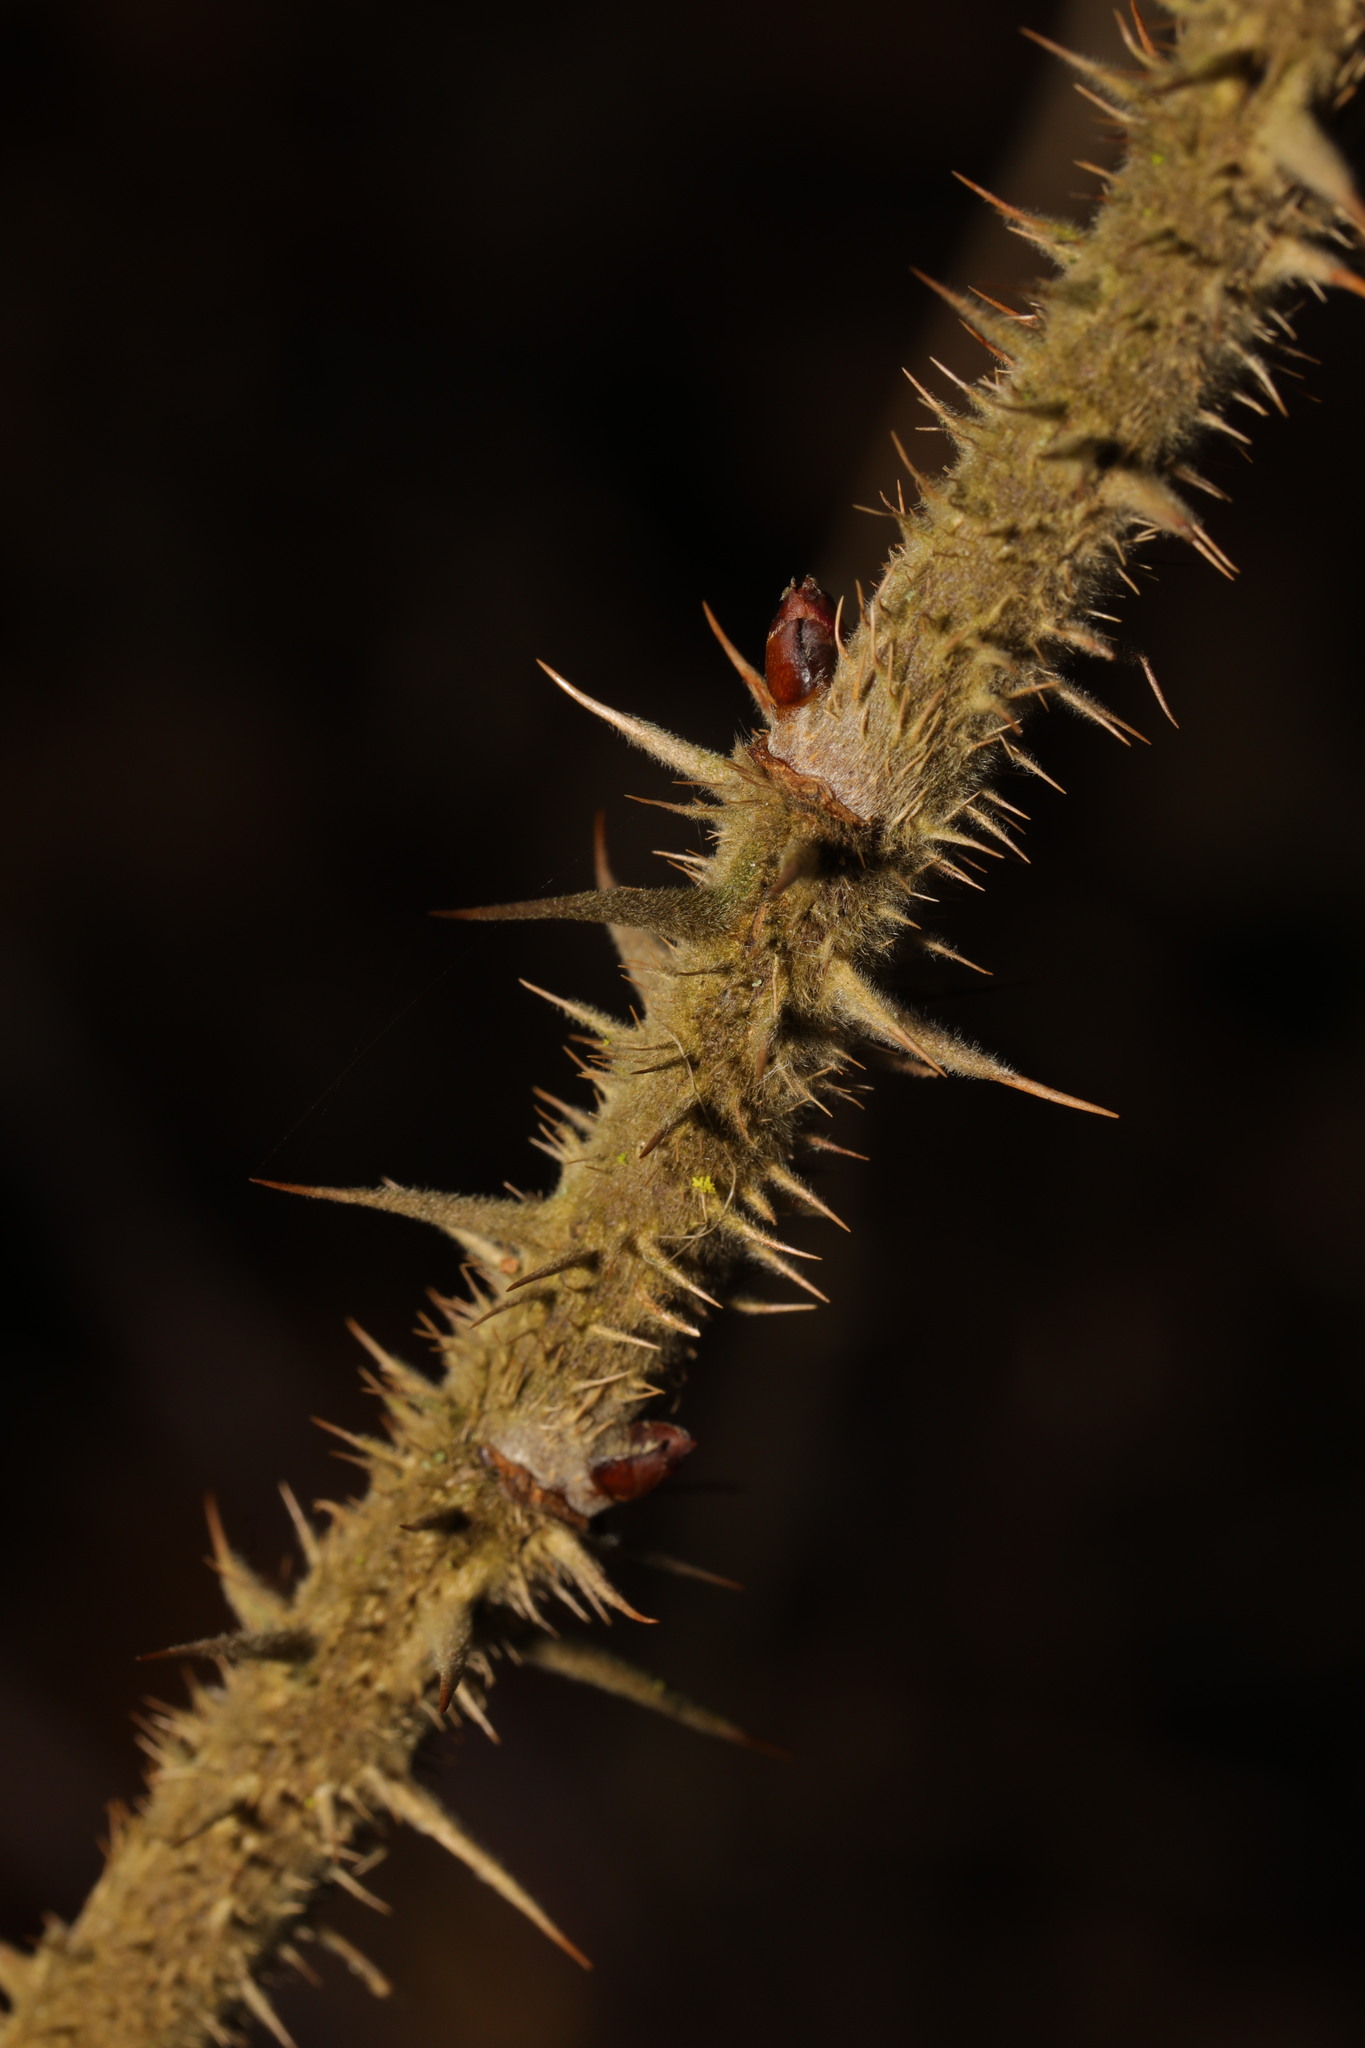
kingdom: Plantae
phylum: Tracheophyta
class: Magnoliopsida
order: Rosales
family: Rosaceae
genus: Rosa
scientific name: Rosa rugosa
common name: Japanese rose
